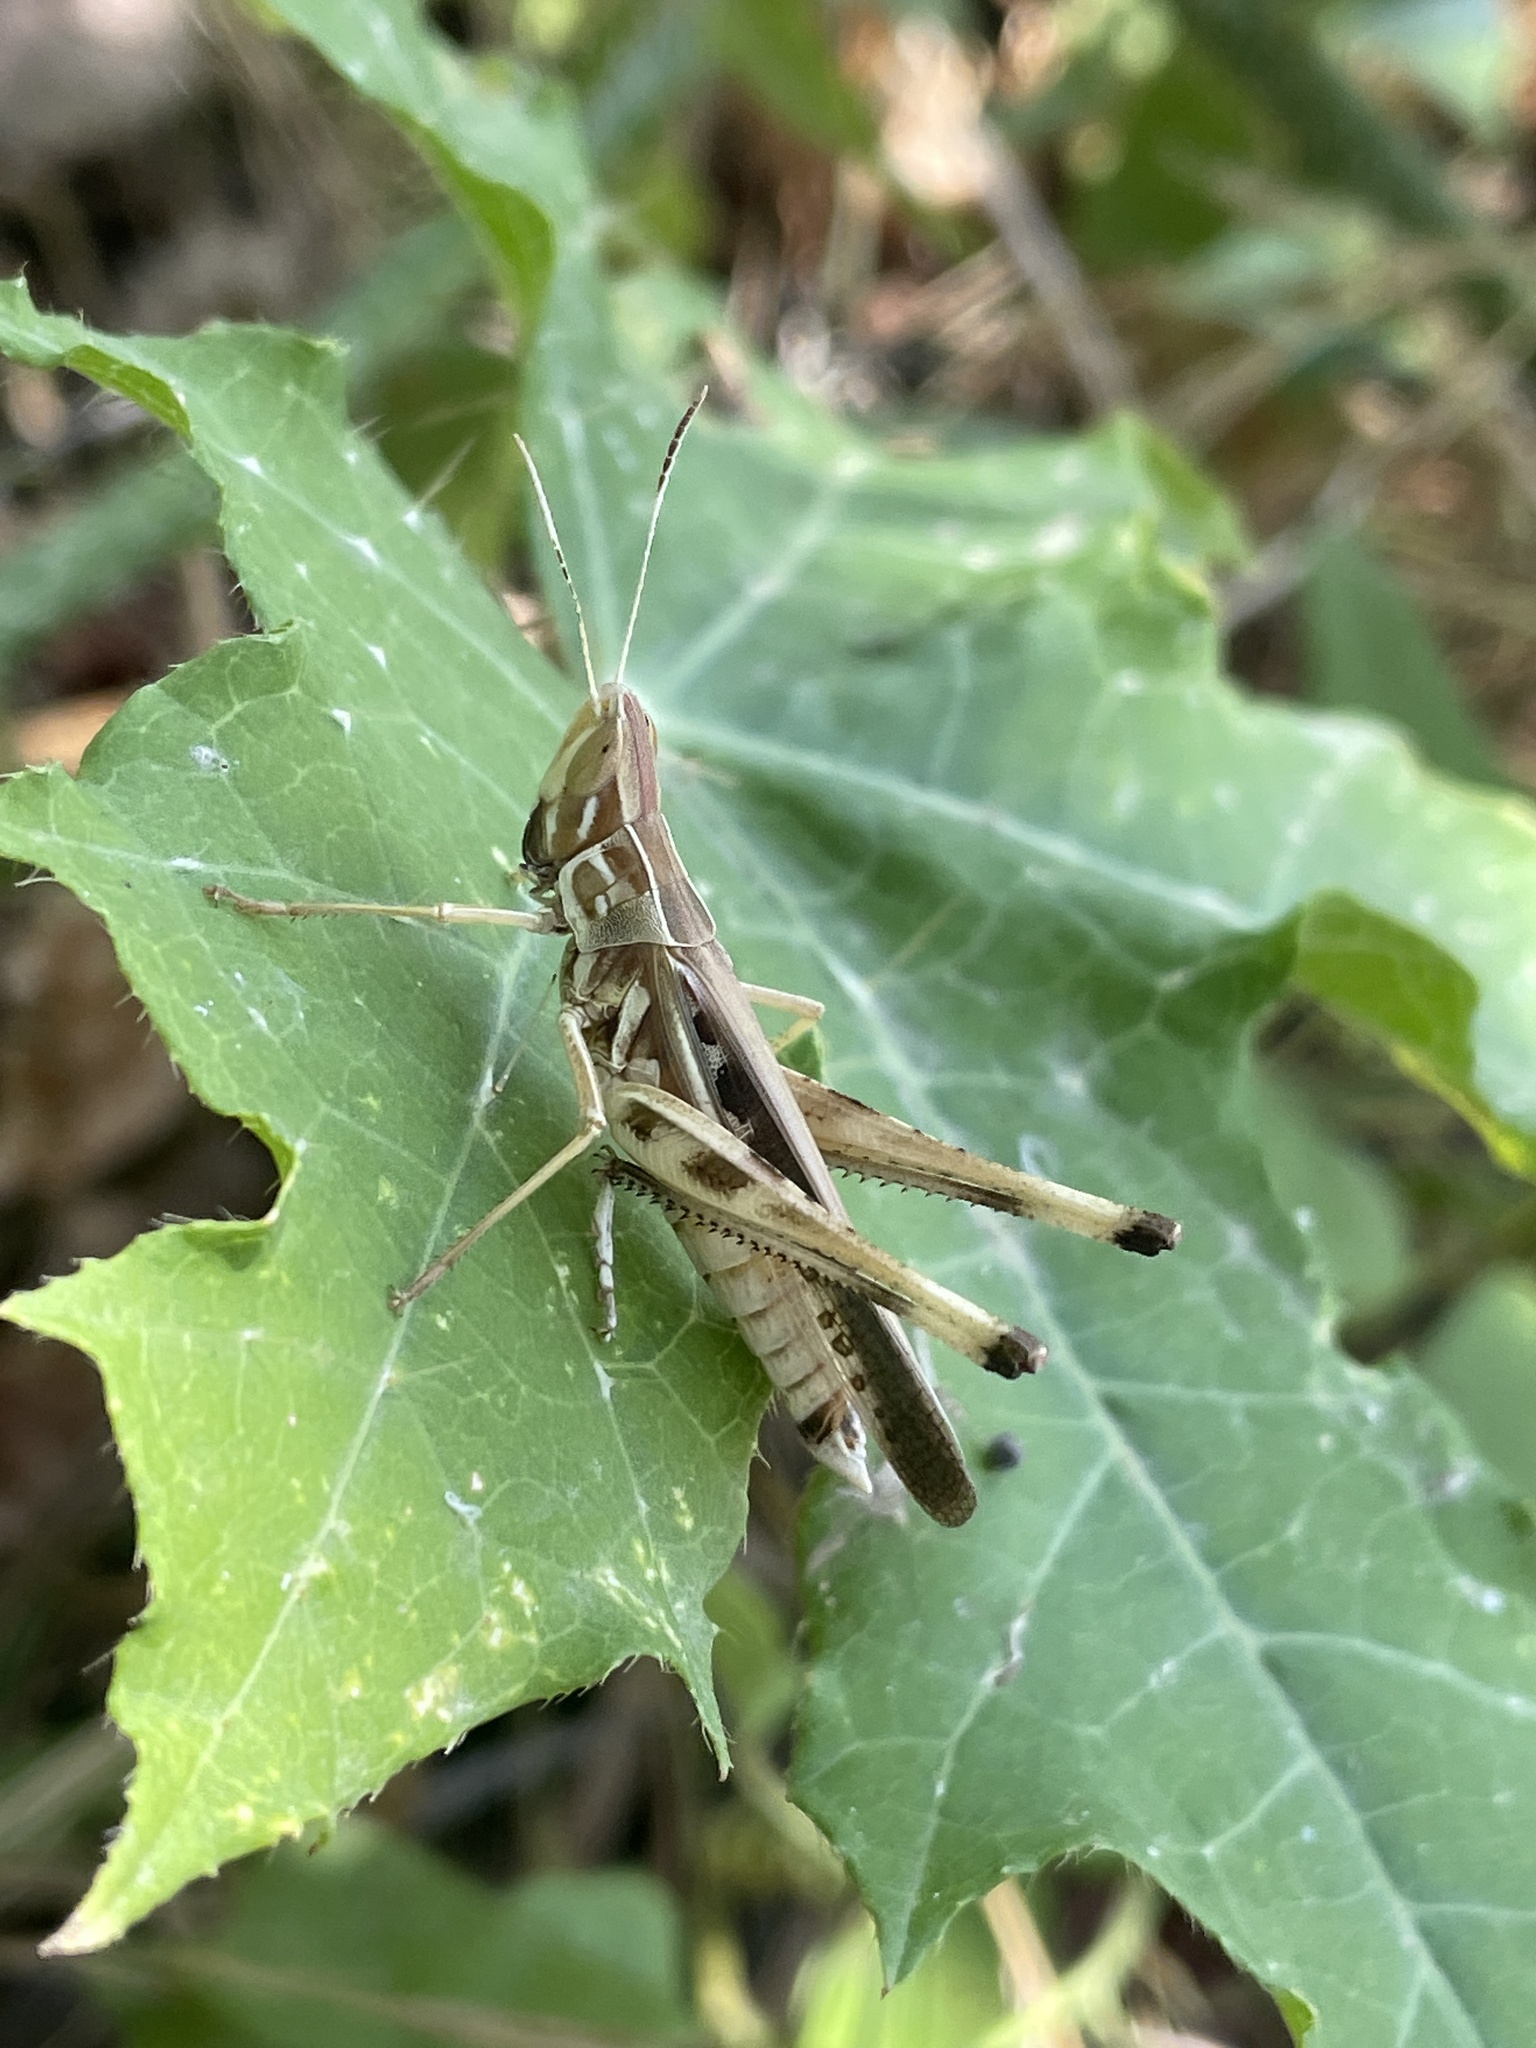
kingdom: Animalia
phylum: Arthropoda
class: Insecta
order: Orthoptera
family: Acrididae
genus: Syrbula
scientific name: Syrbula admirabilis
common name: Handsome grasshopper
